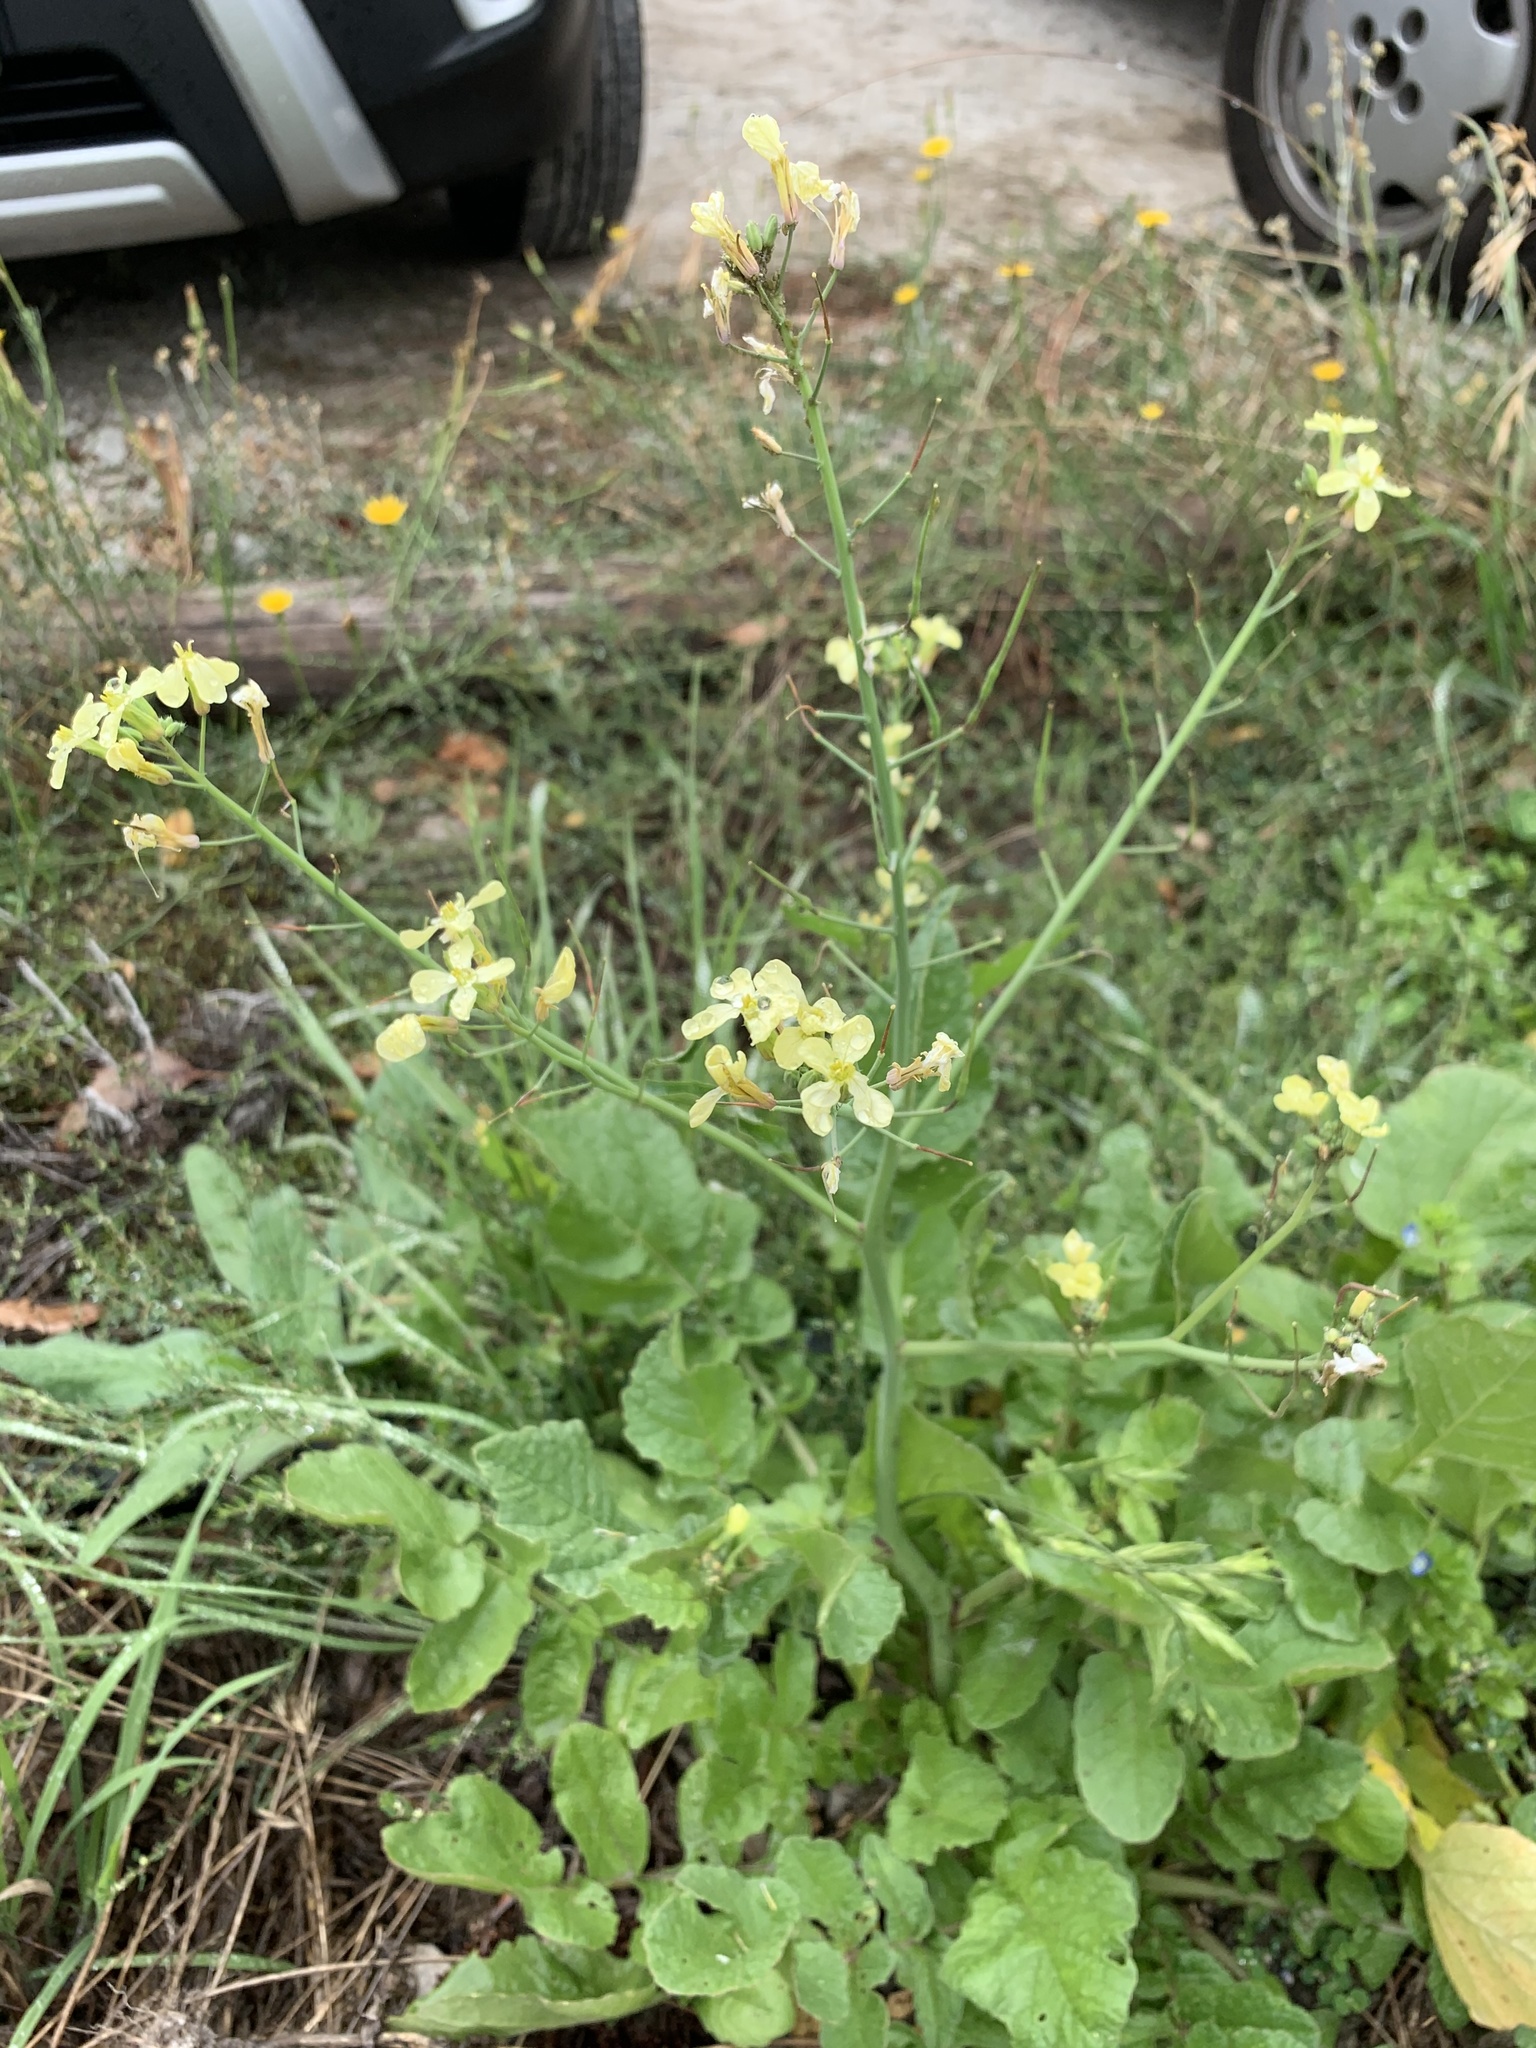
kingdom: Plantae
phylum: Tracheophyta
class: Magnoliopsida
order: Brassicales
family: Brassicaceae
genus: Raphanus
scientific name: Raphanus raphanistrum
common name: Wild radish
